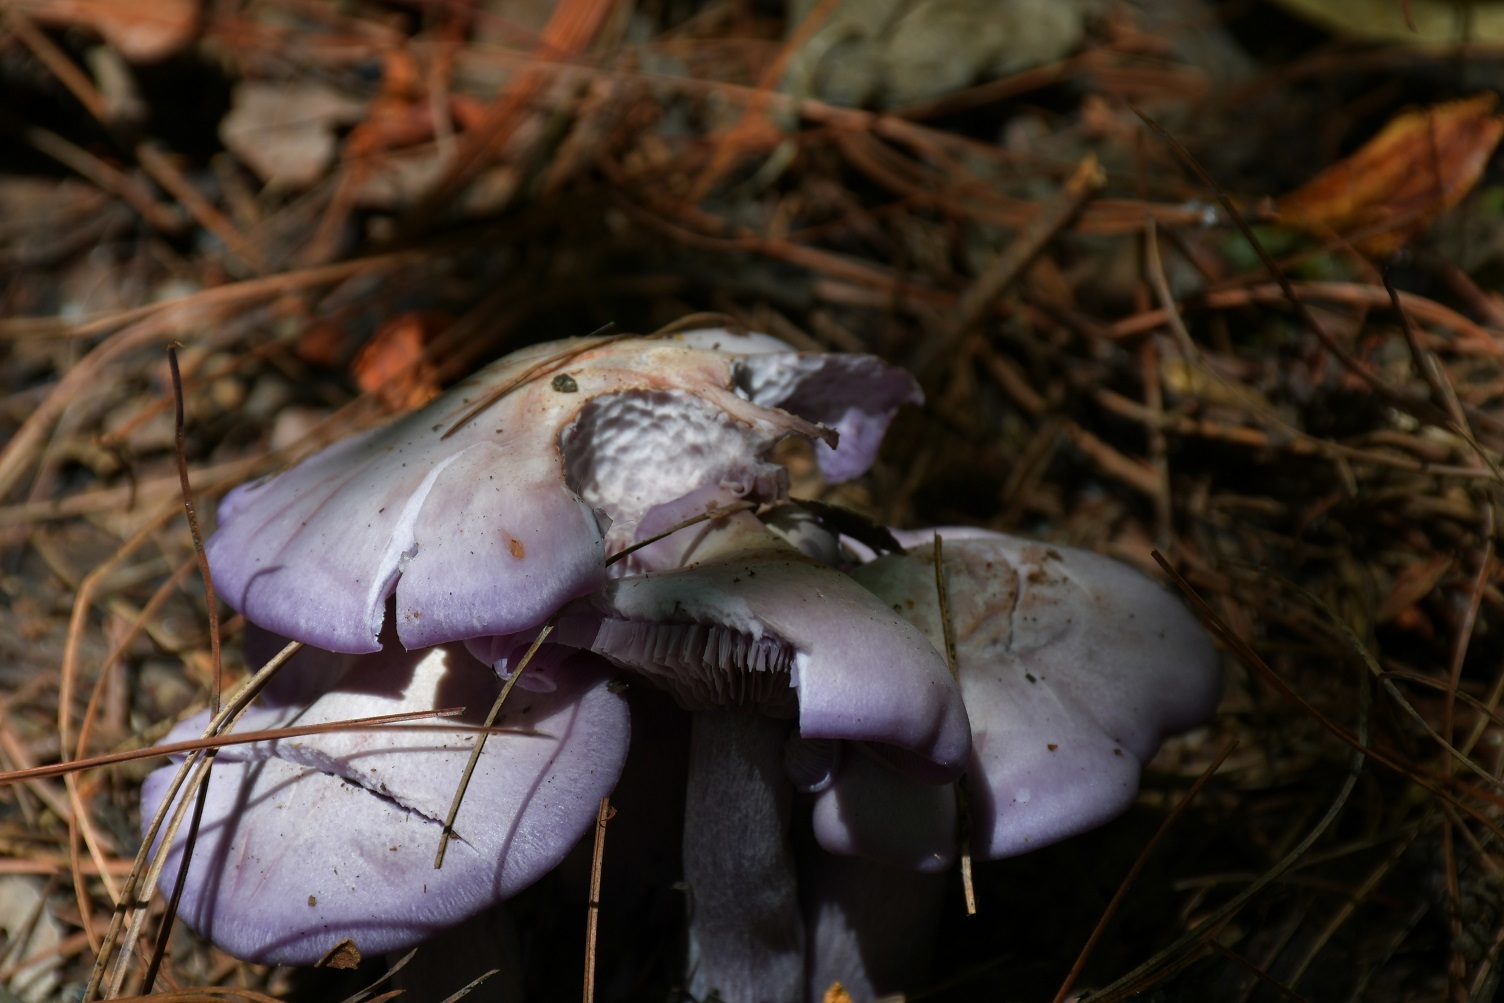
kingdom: Fungi
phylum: Basidiomycota
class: Agaricomycetes
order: Agaricales
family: Tricholomataceae
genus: Collybia
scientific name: Collybia
